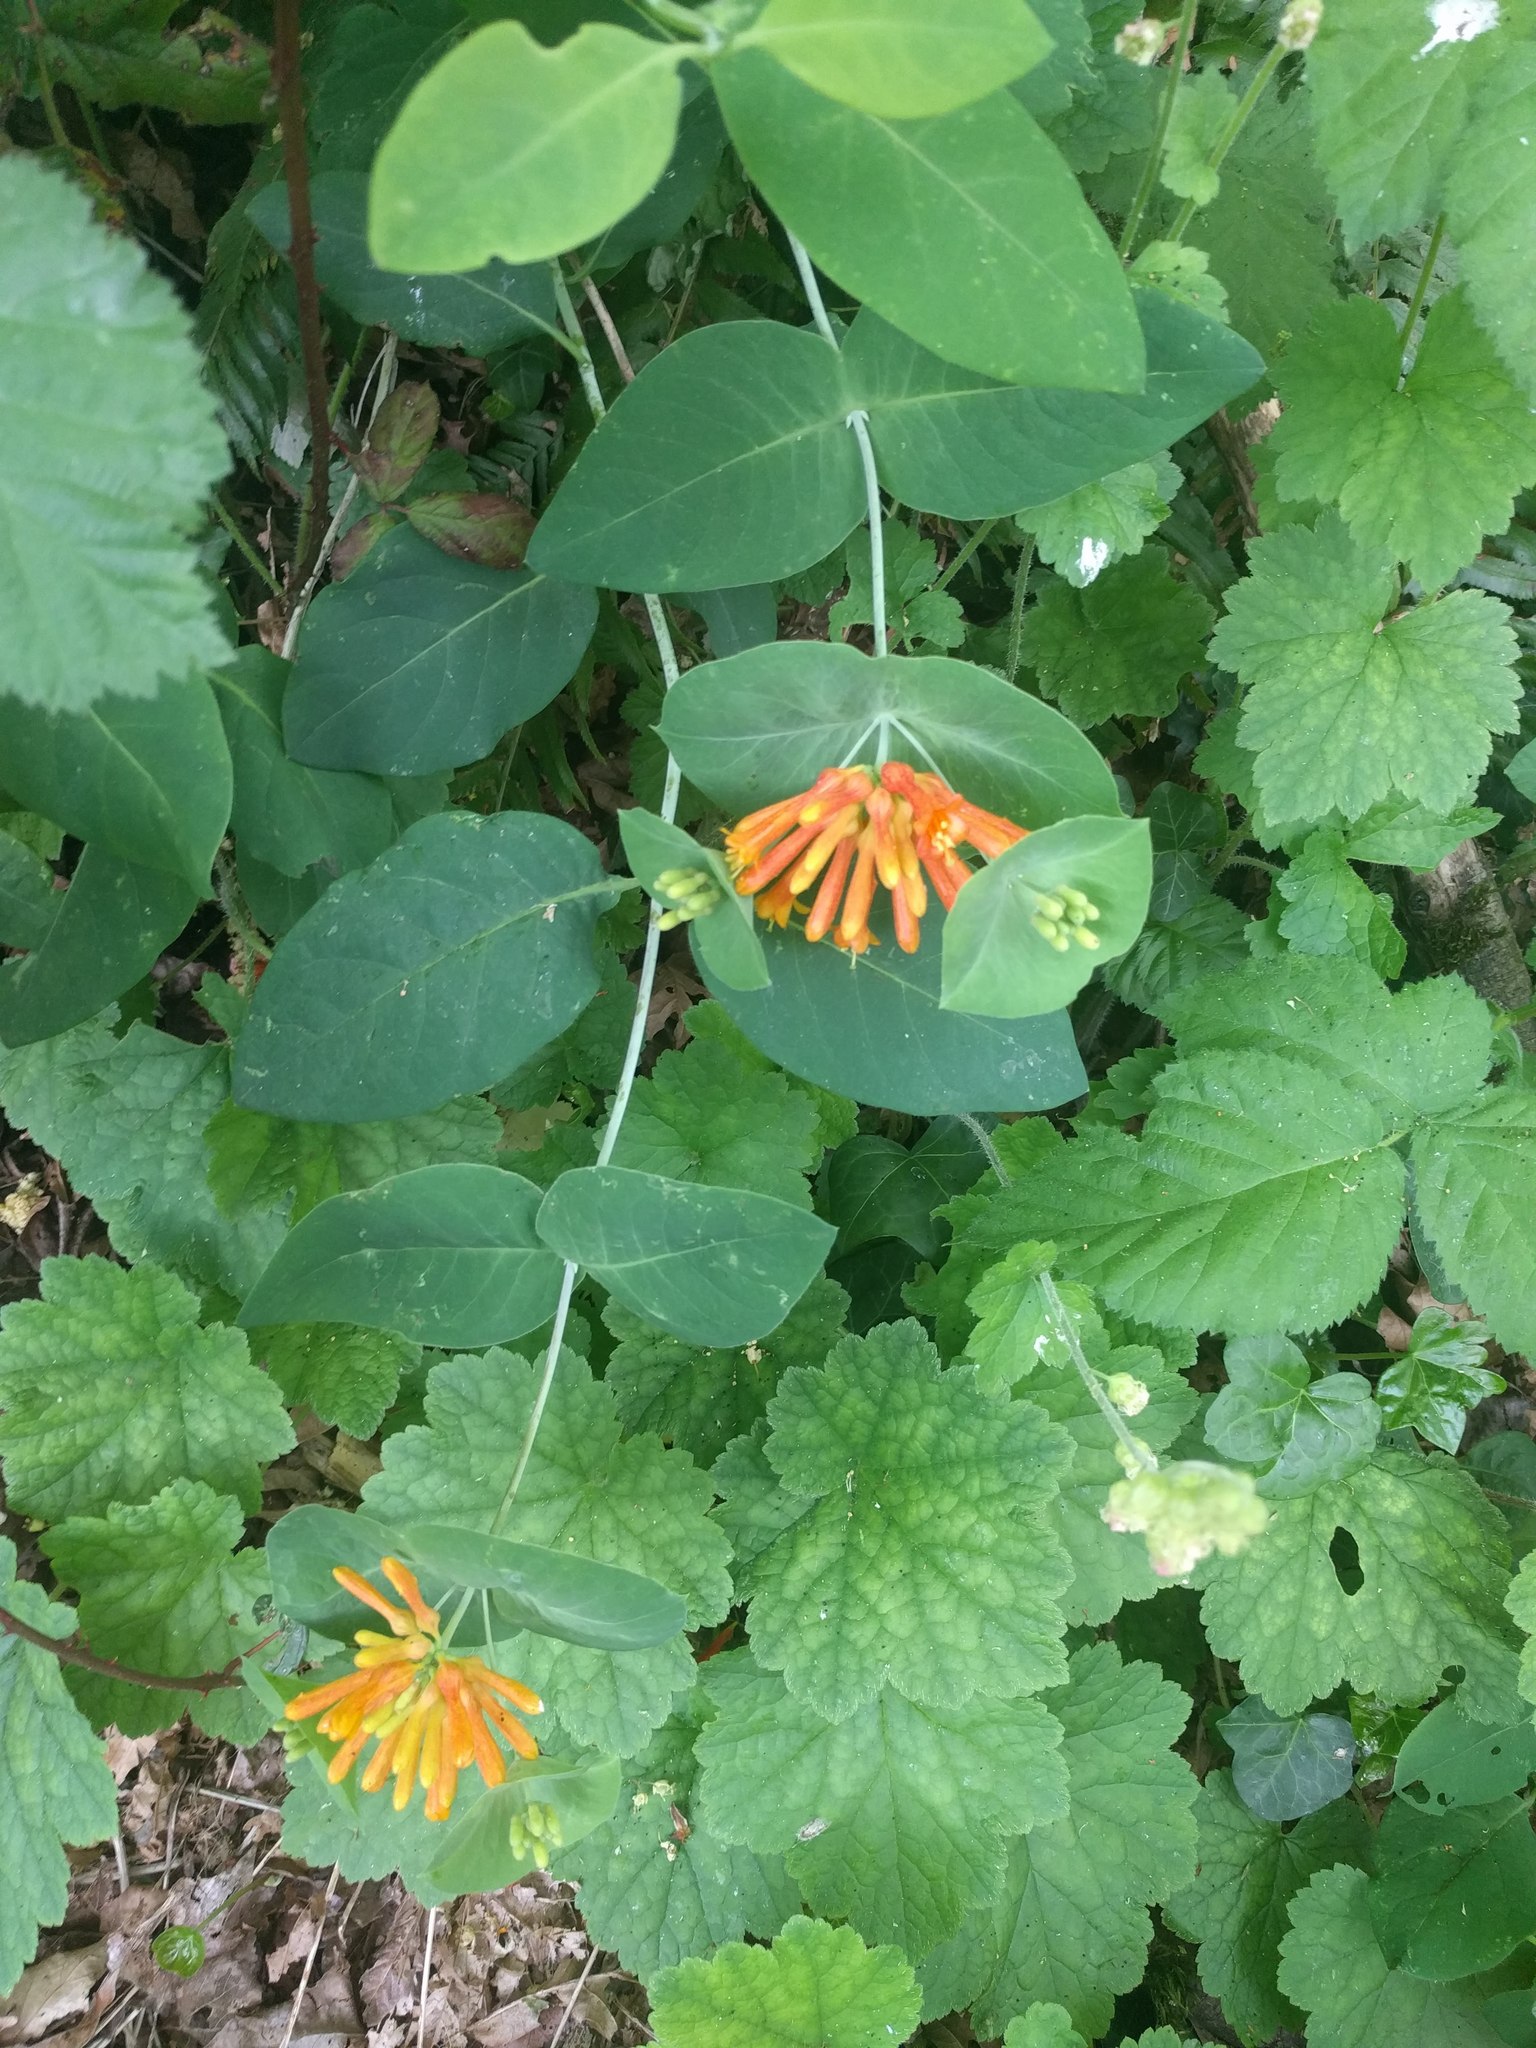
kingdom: Plantae
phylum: Tracheophyta
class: Magnoliopsida
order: Dipsacales
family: Caprifoliaceae
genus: Lonicera
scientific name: Lonicera ciliosa
